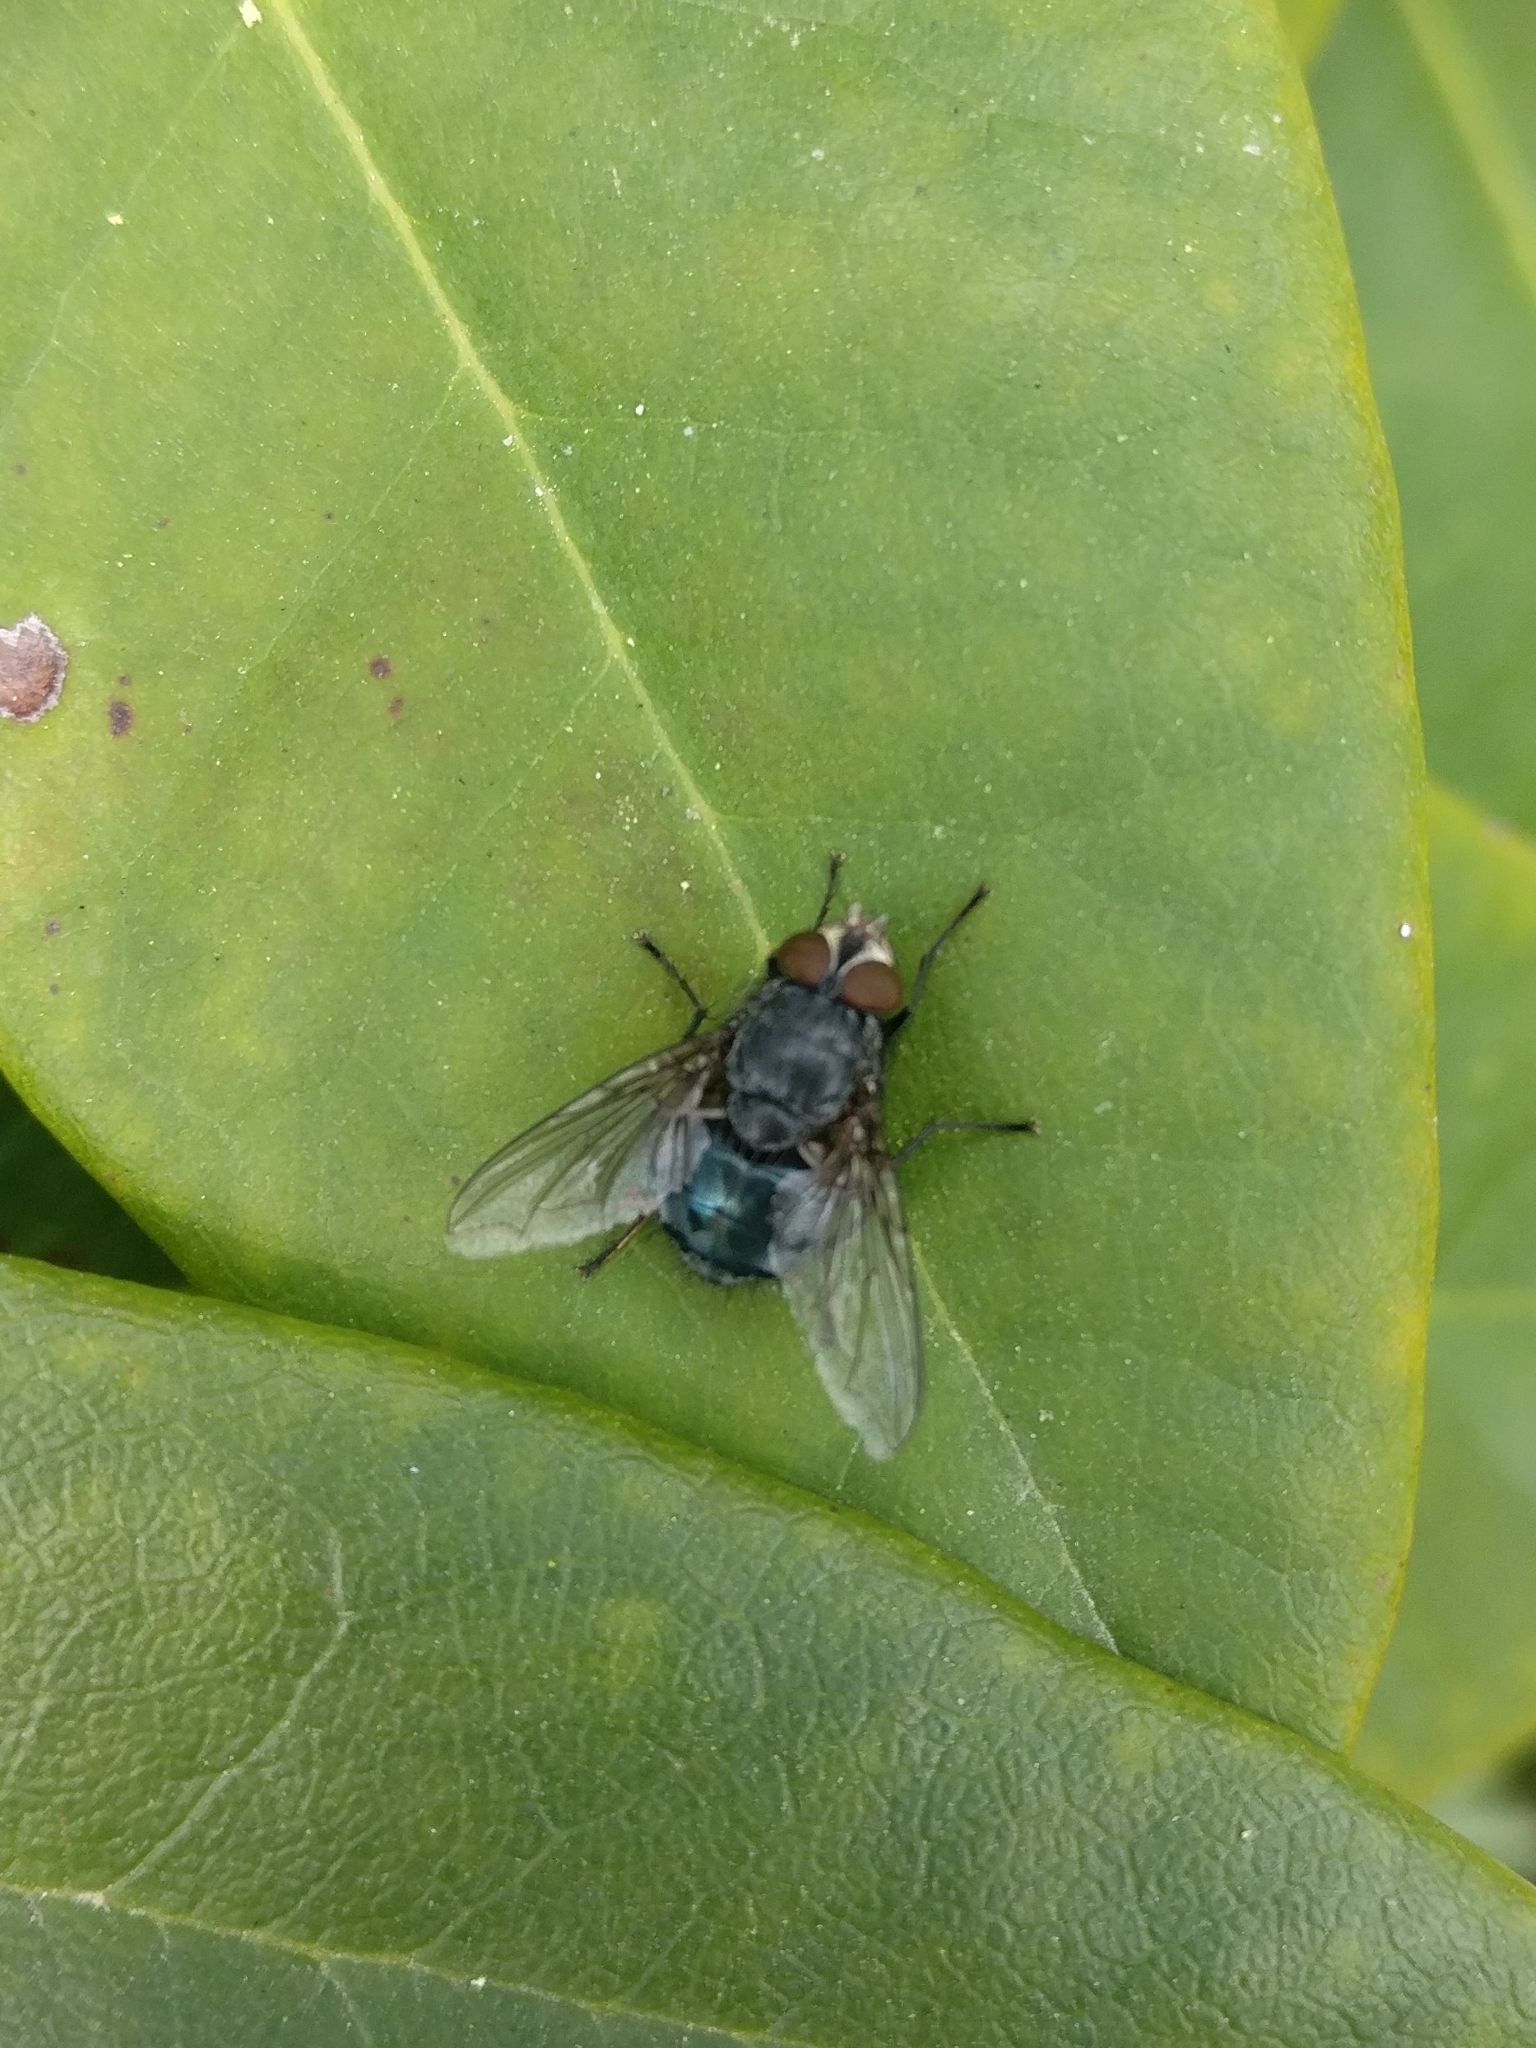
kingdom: Animalia
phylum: Arthropoda
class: Insecta
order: Diptera
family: Calliphoridae
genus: Calliphora
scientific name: Calliphora vicina
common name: Common blow flie
